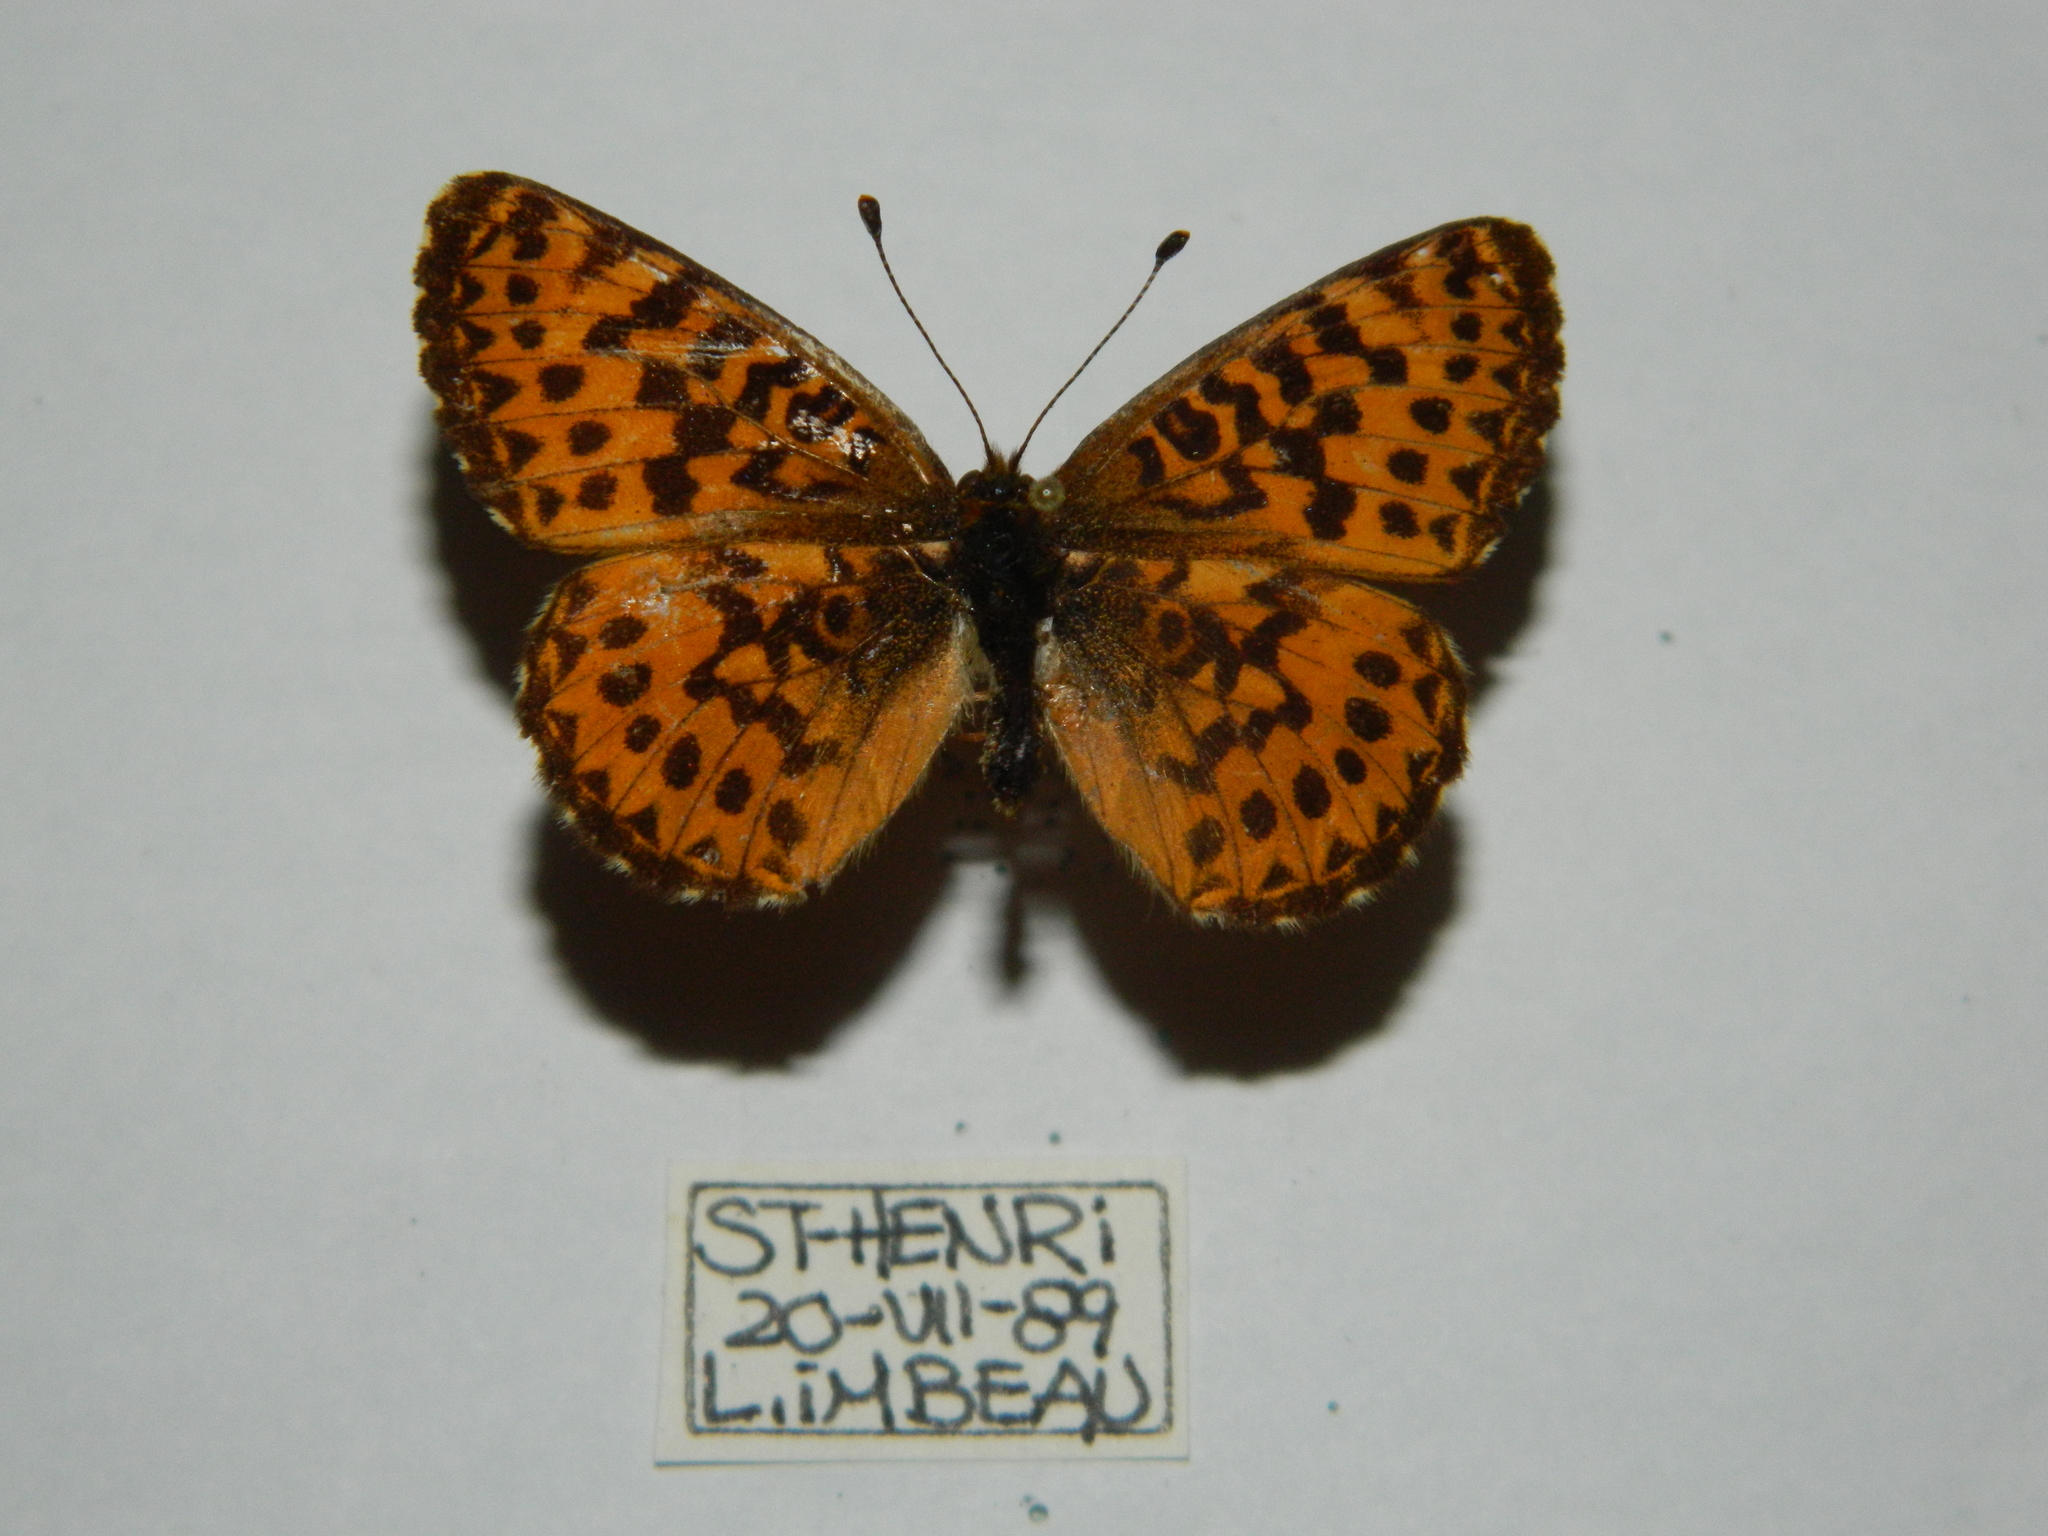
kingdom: Animalia
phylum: Arthropoda
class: Insecta
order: Lepidoptera
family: Nymphalidae
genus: Clossiana
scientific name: Clossiana chariclea
